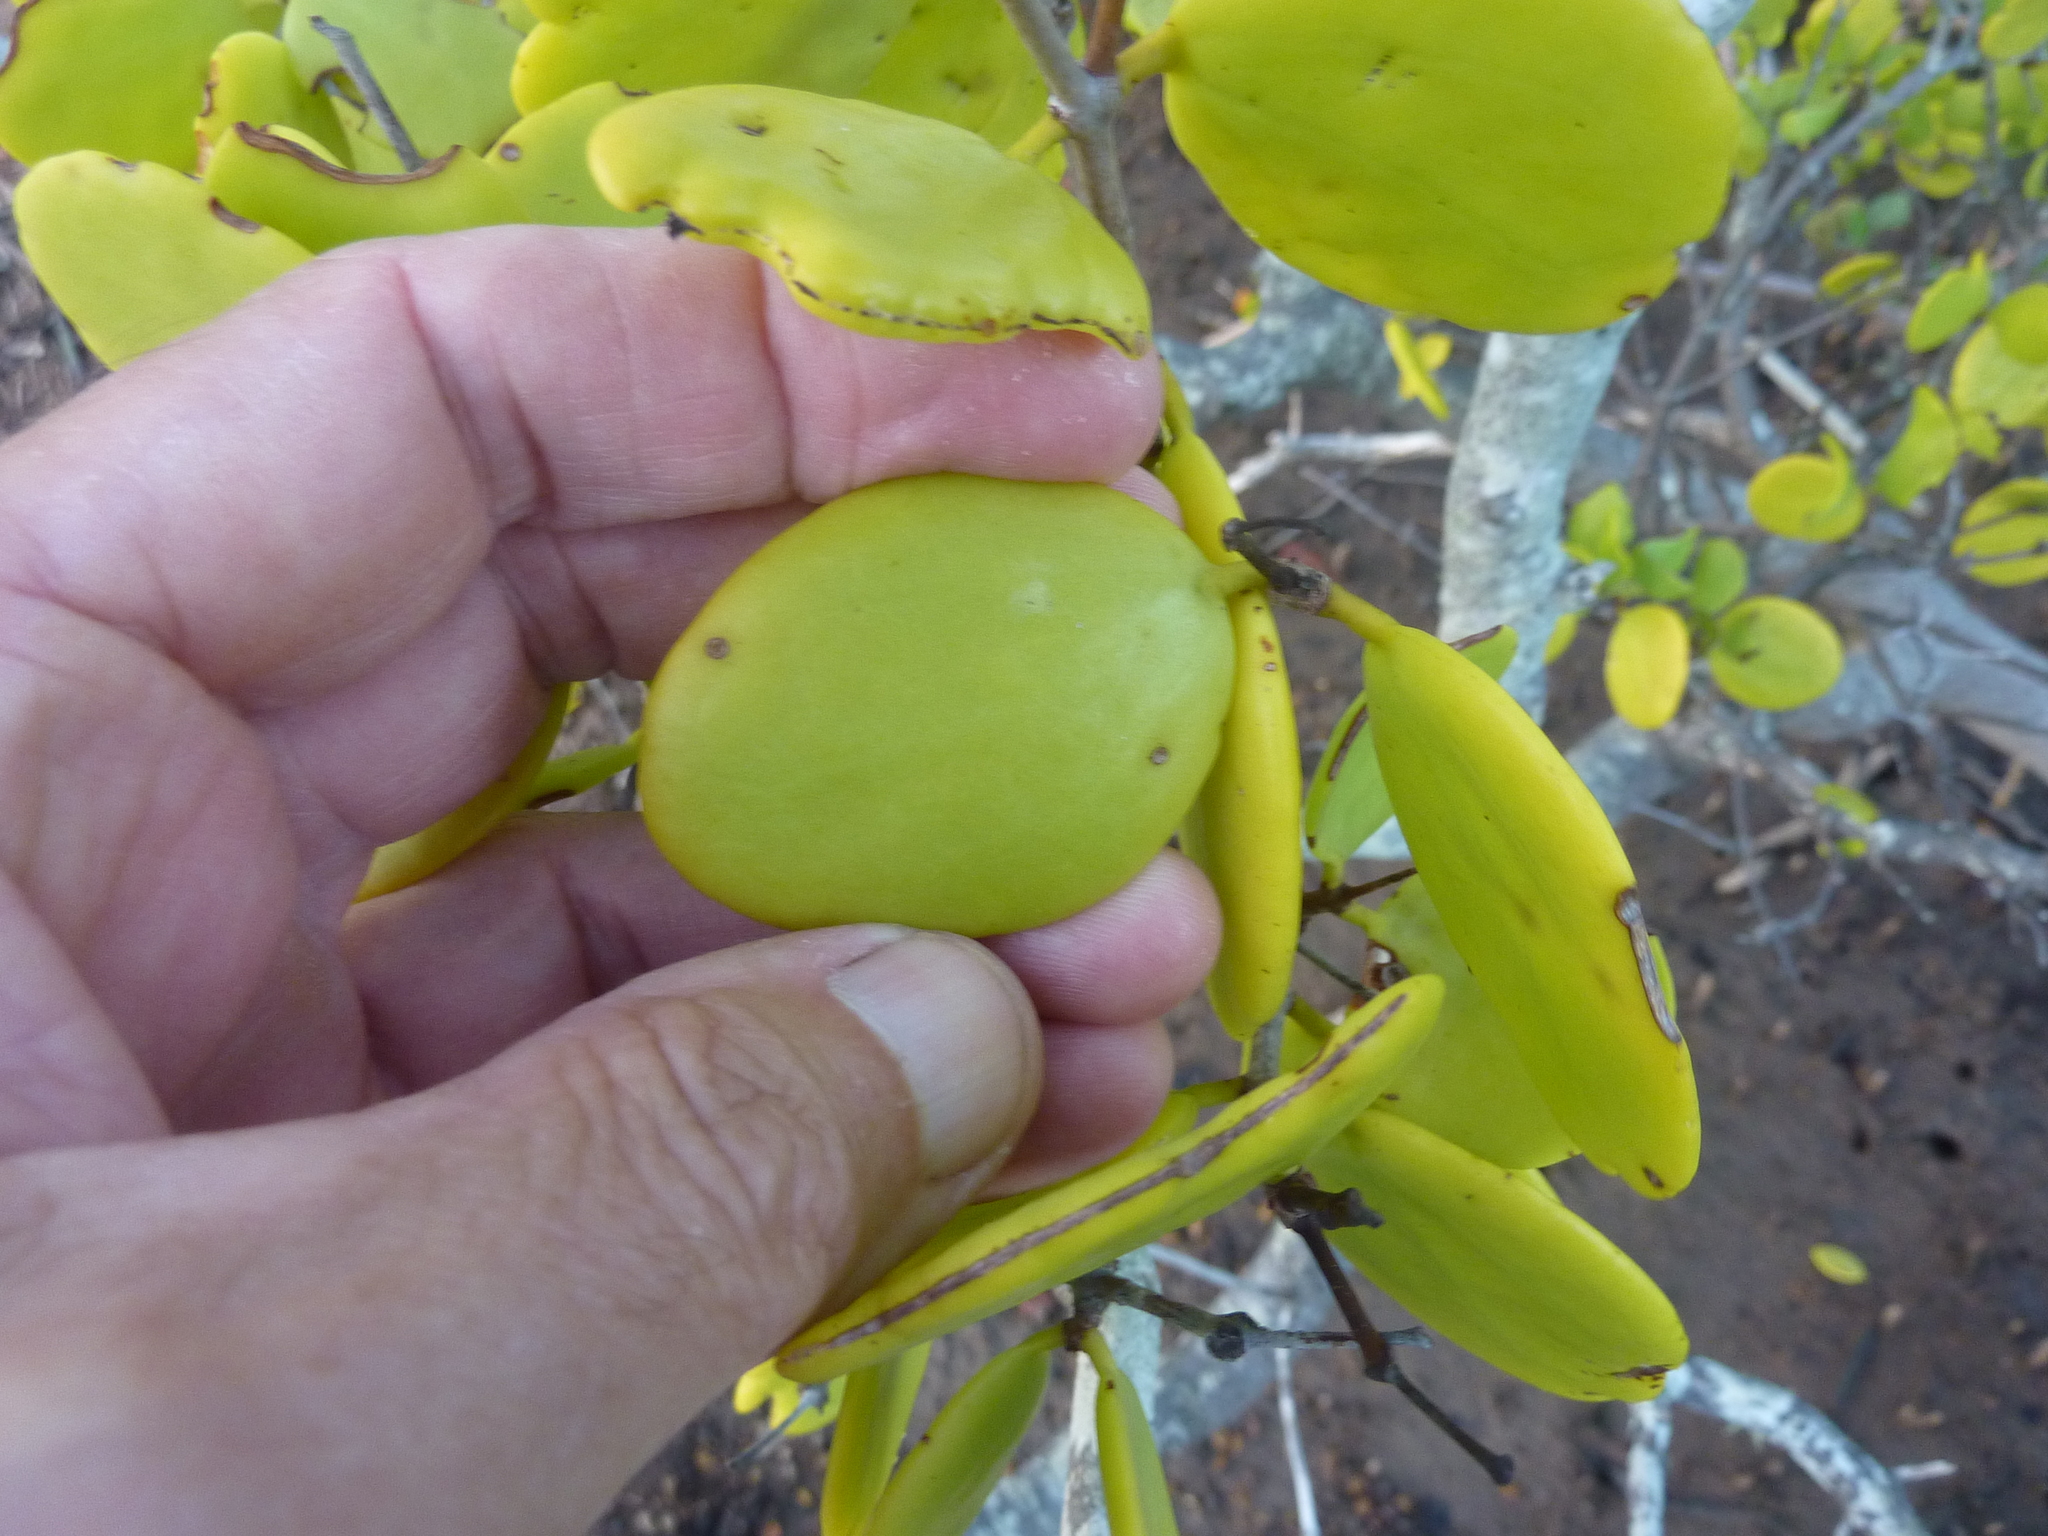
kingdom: Plantae
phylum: Tracheophyta
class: Magnoliopsida
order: Santalales
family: Loranthaceae
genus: Amyema
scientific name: Amyema mackayensis
